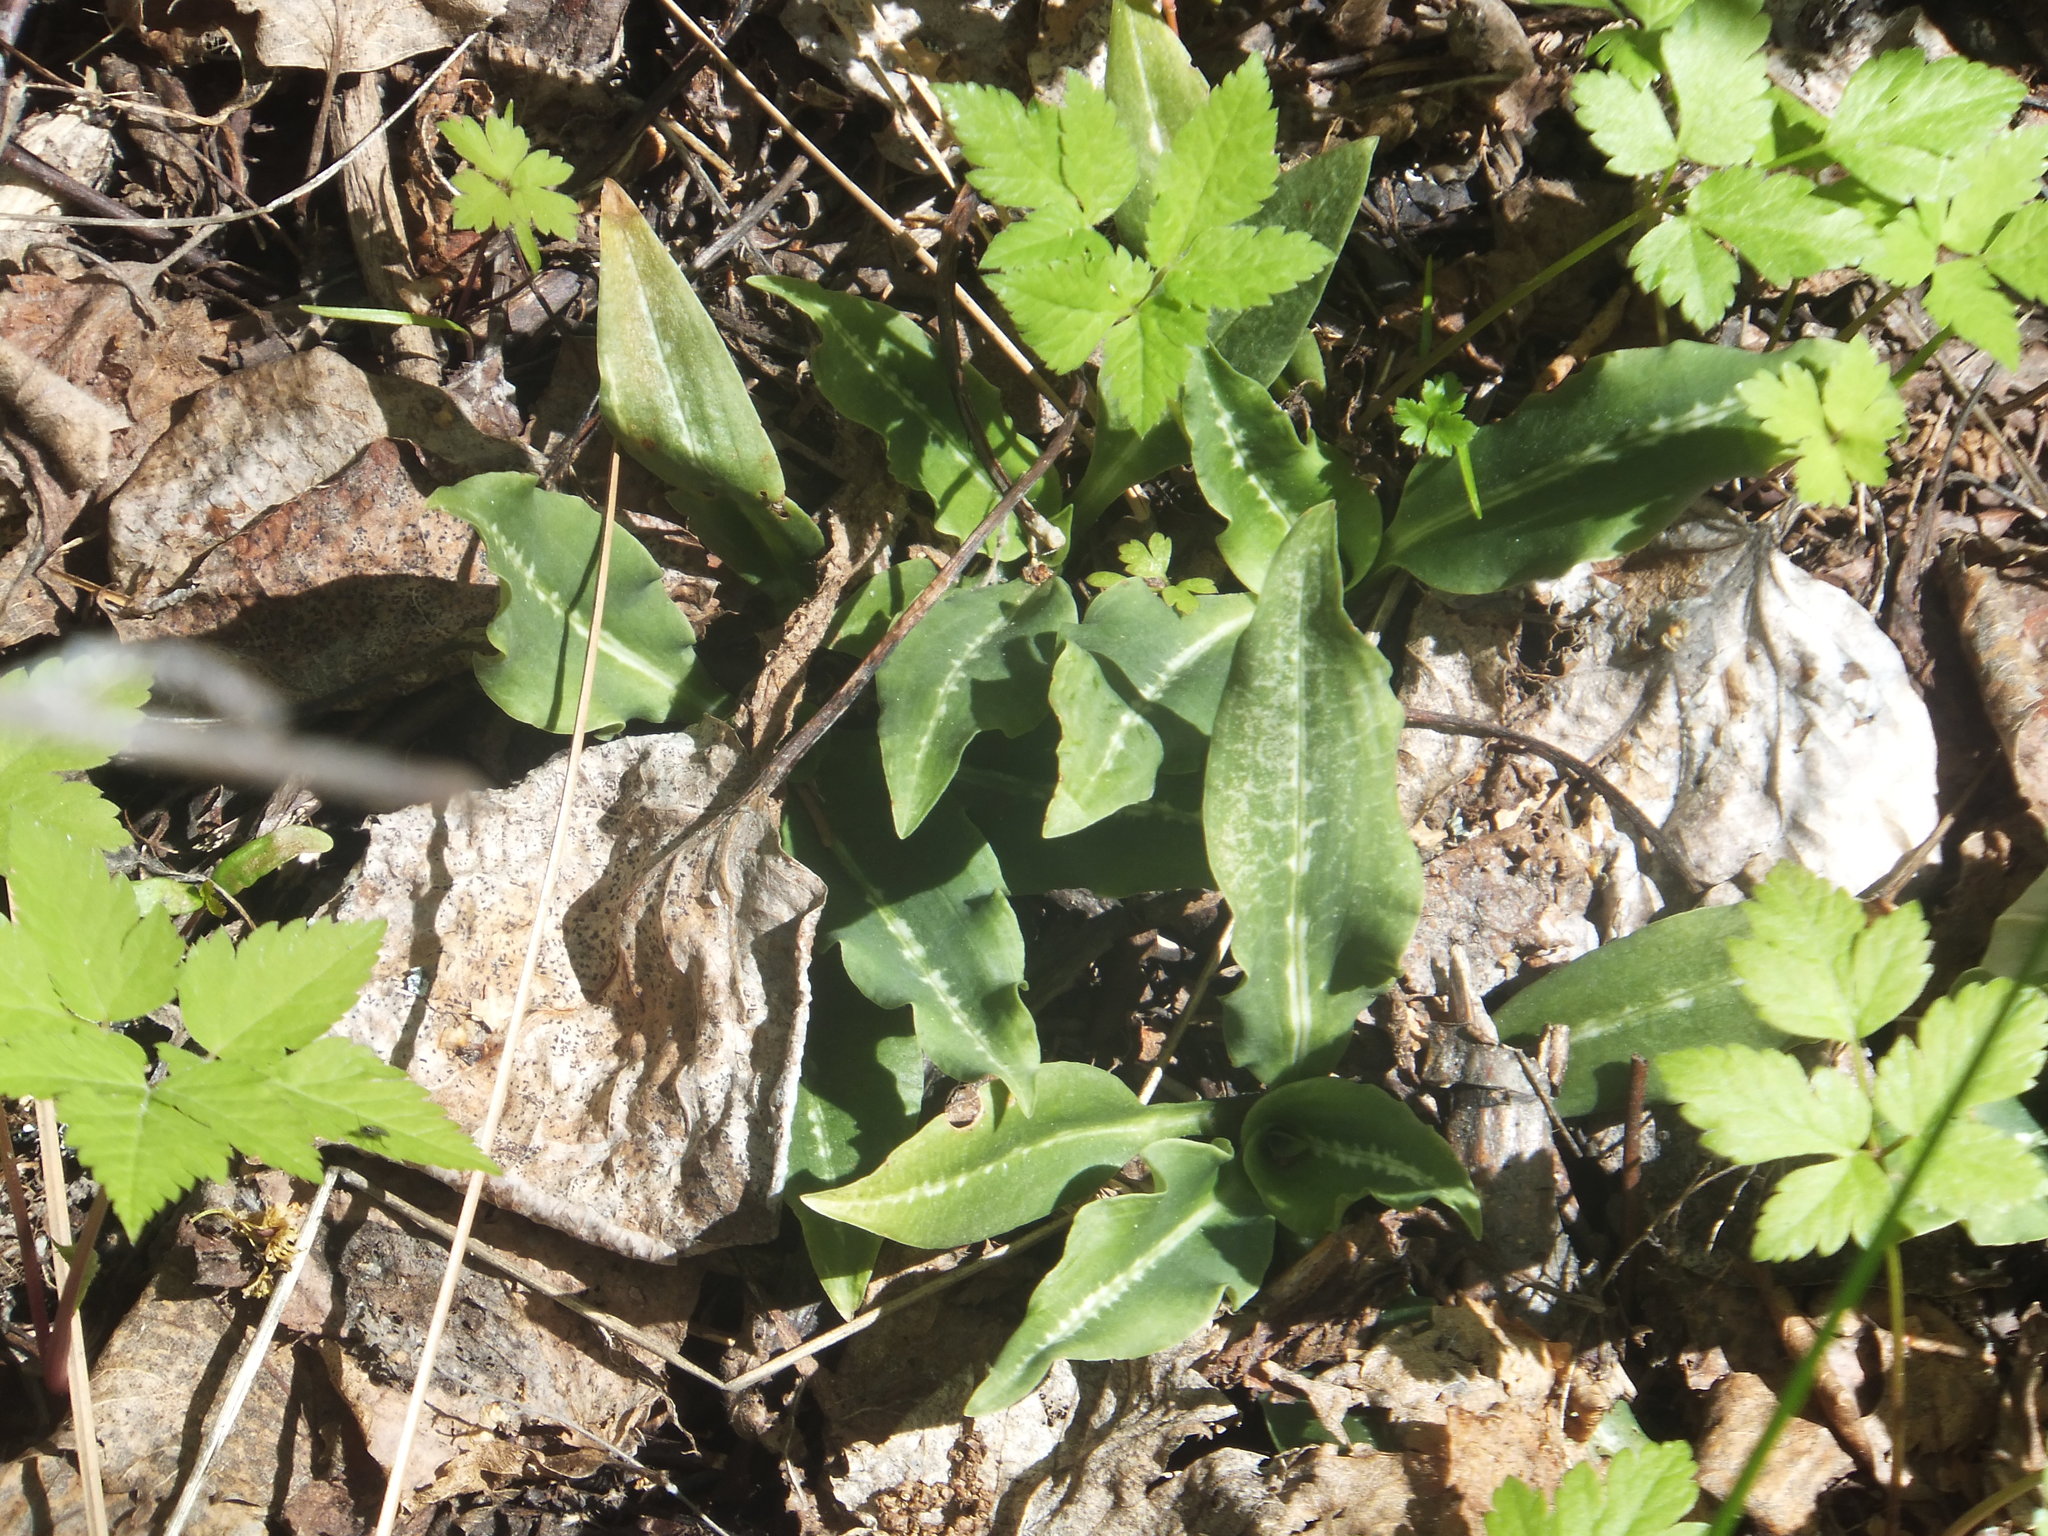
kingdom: Plantae
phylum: Tracheophyta
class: Liliopsida
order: Asparagales
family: Orchidaceae
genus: Goodyera
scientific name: Goodyera oblongifolia
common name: Giant rattlesnake-plantain
